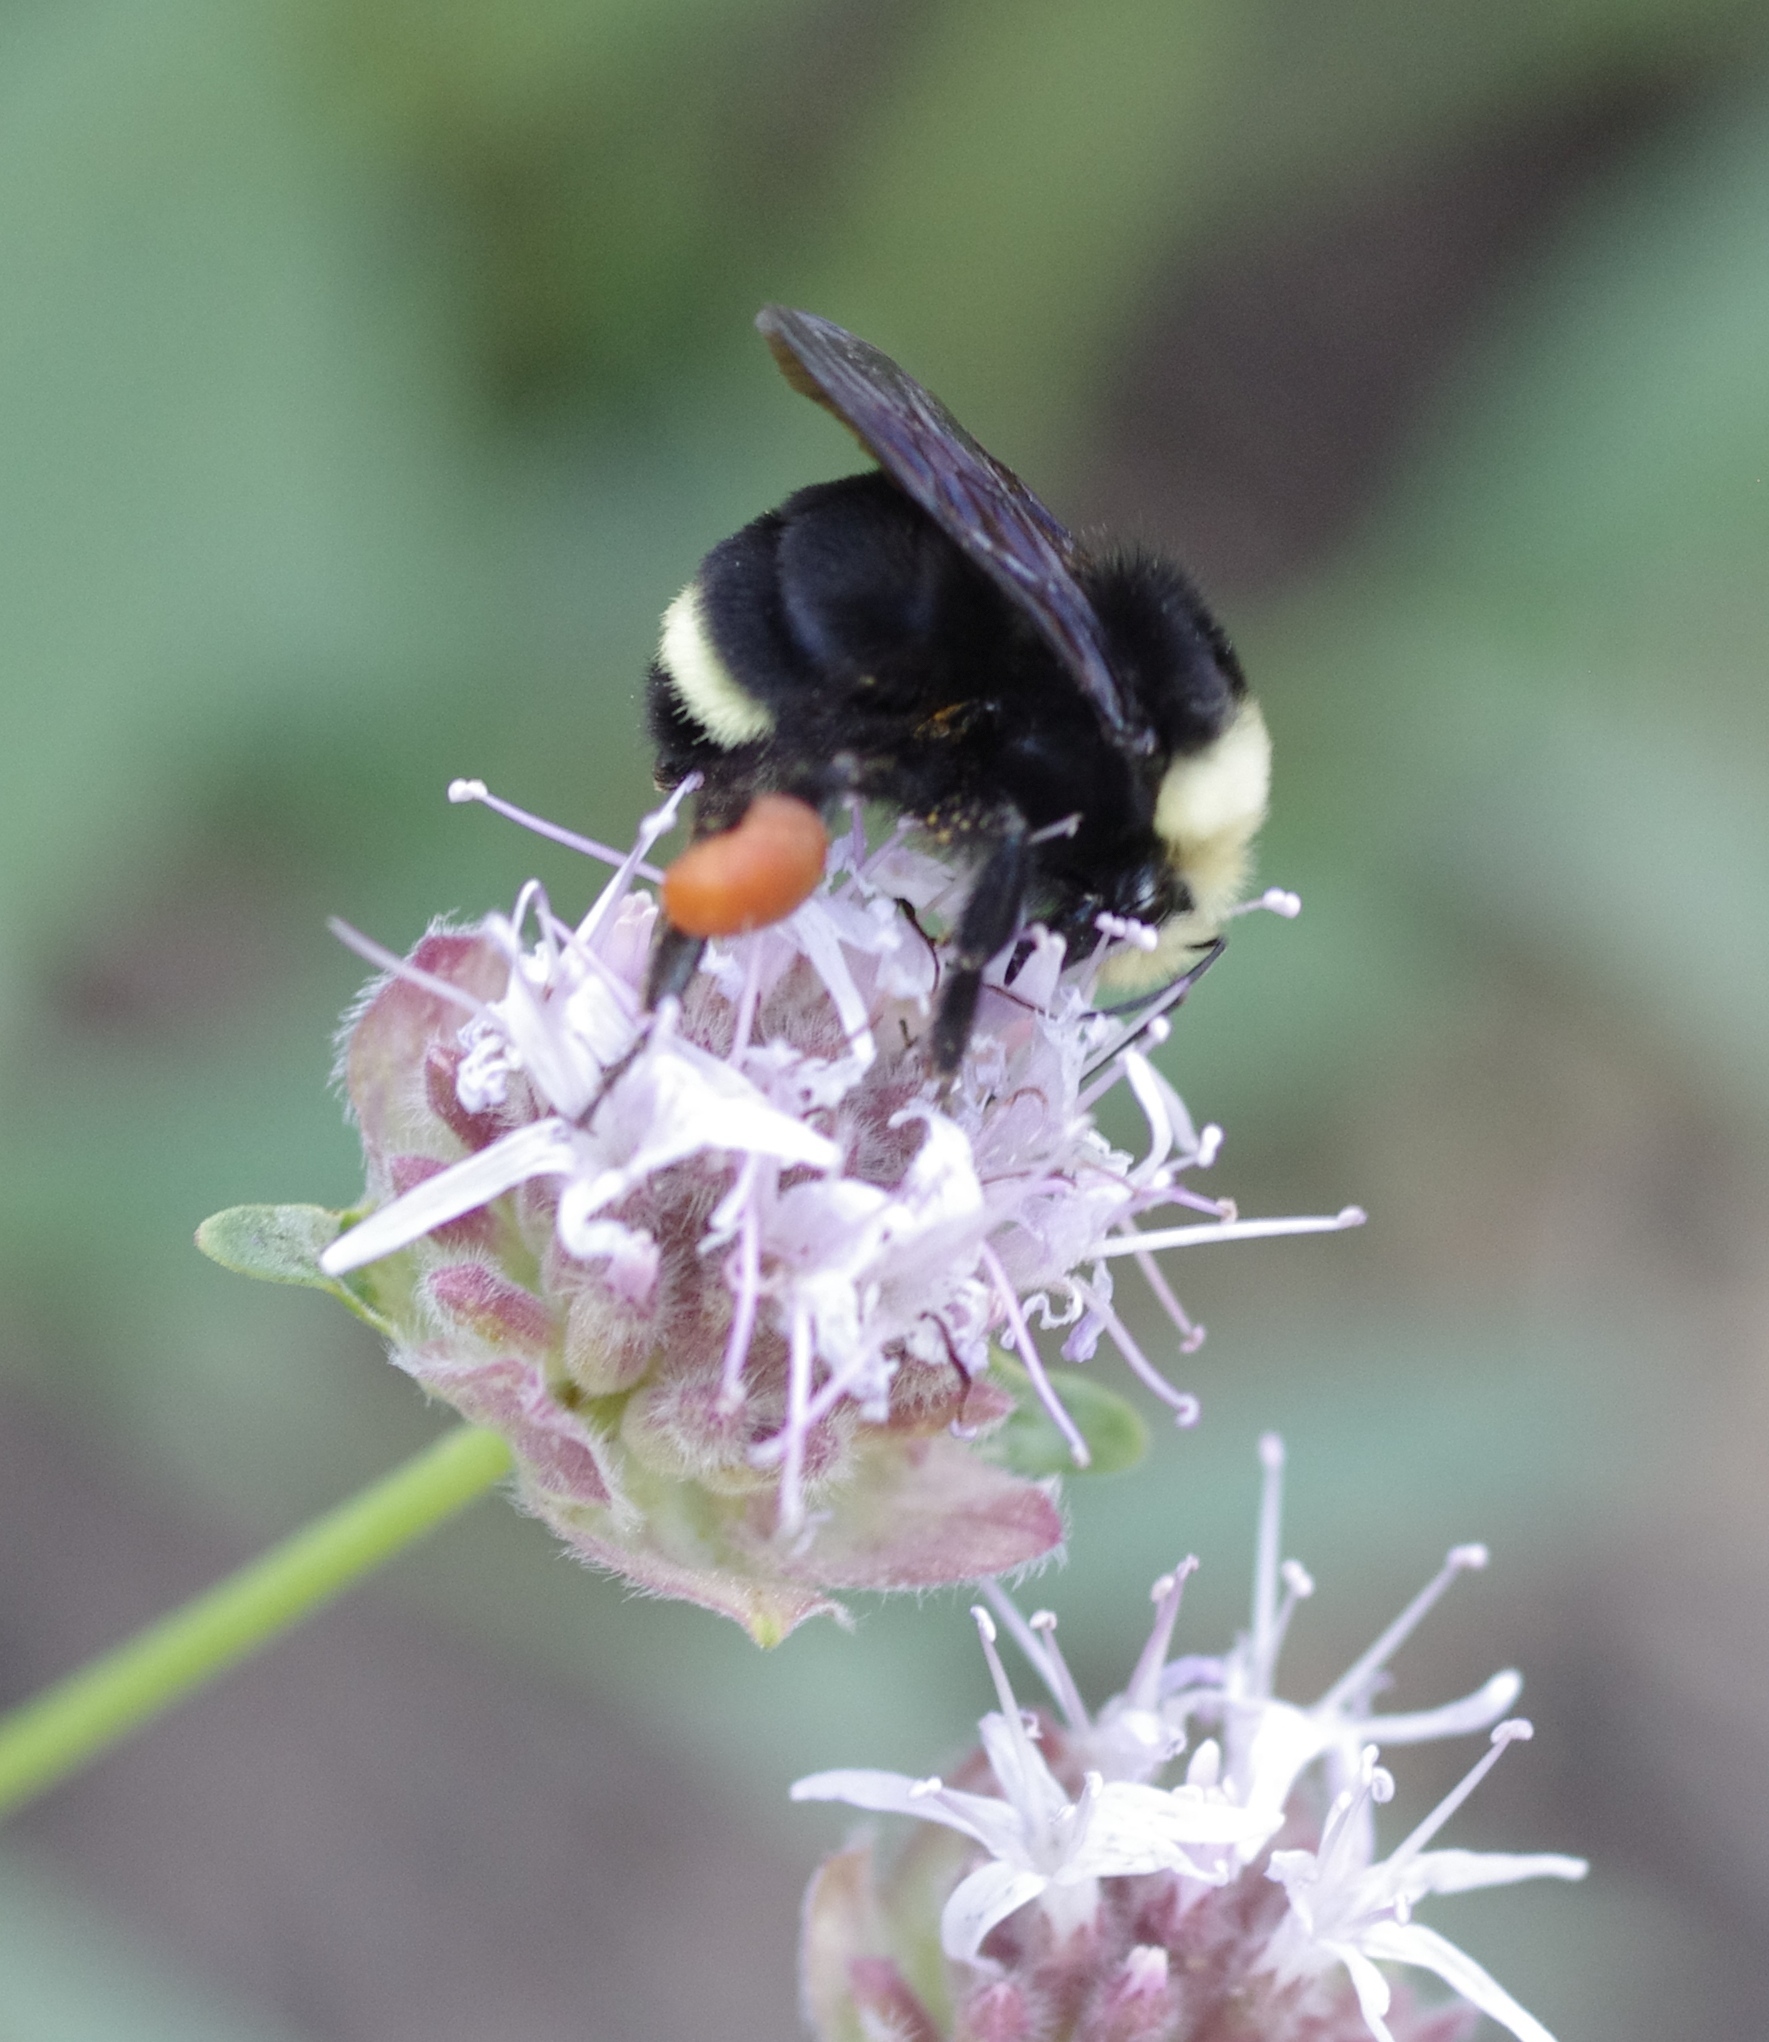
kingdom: Animalia
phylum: Arthropoda
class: Insecta
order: Hymenoptera
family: Apidae
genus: Bombus
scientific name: Bombus vosnesenskii
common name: Vosnesensky bumble bee
